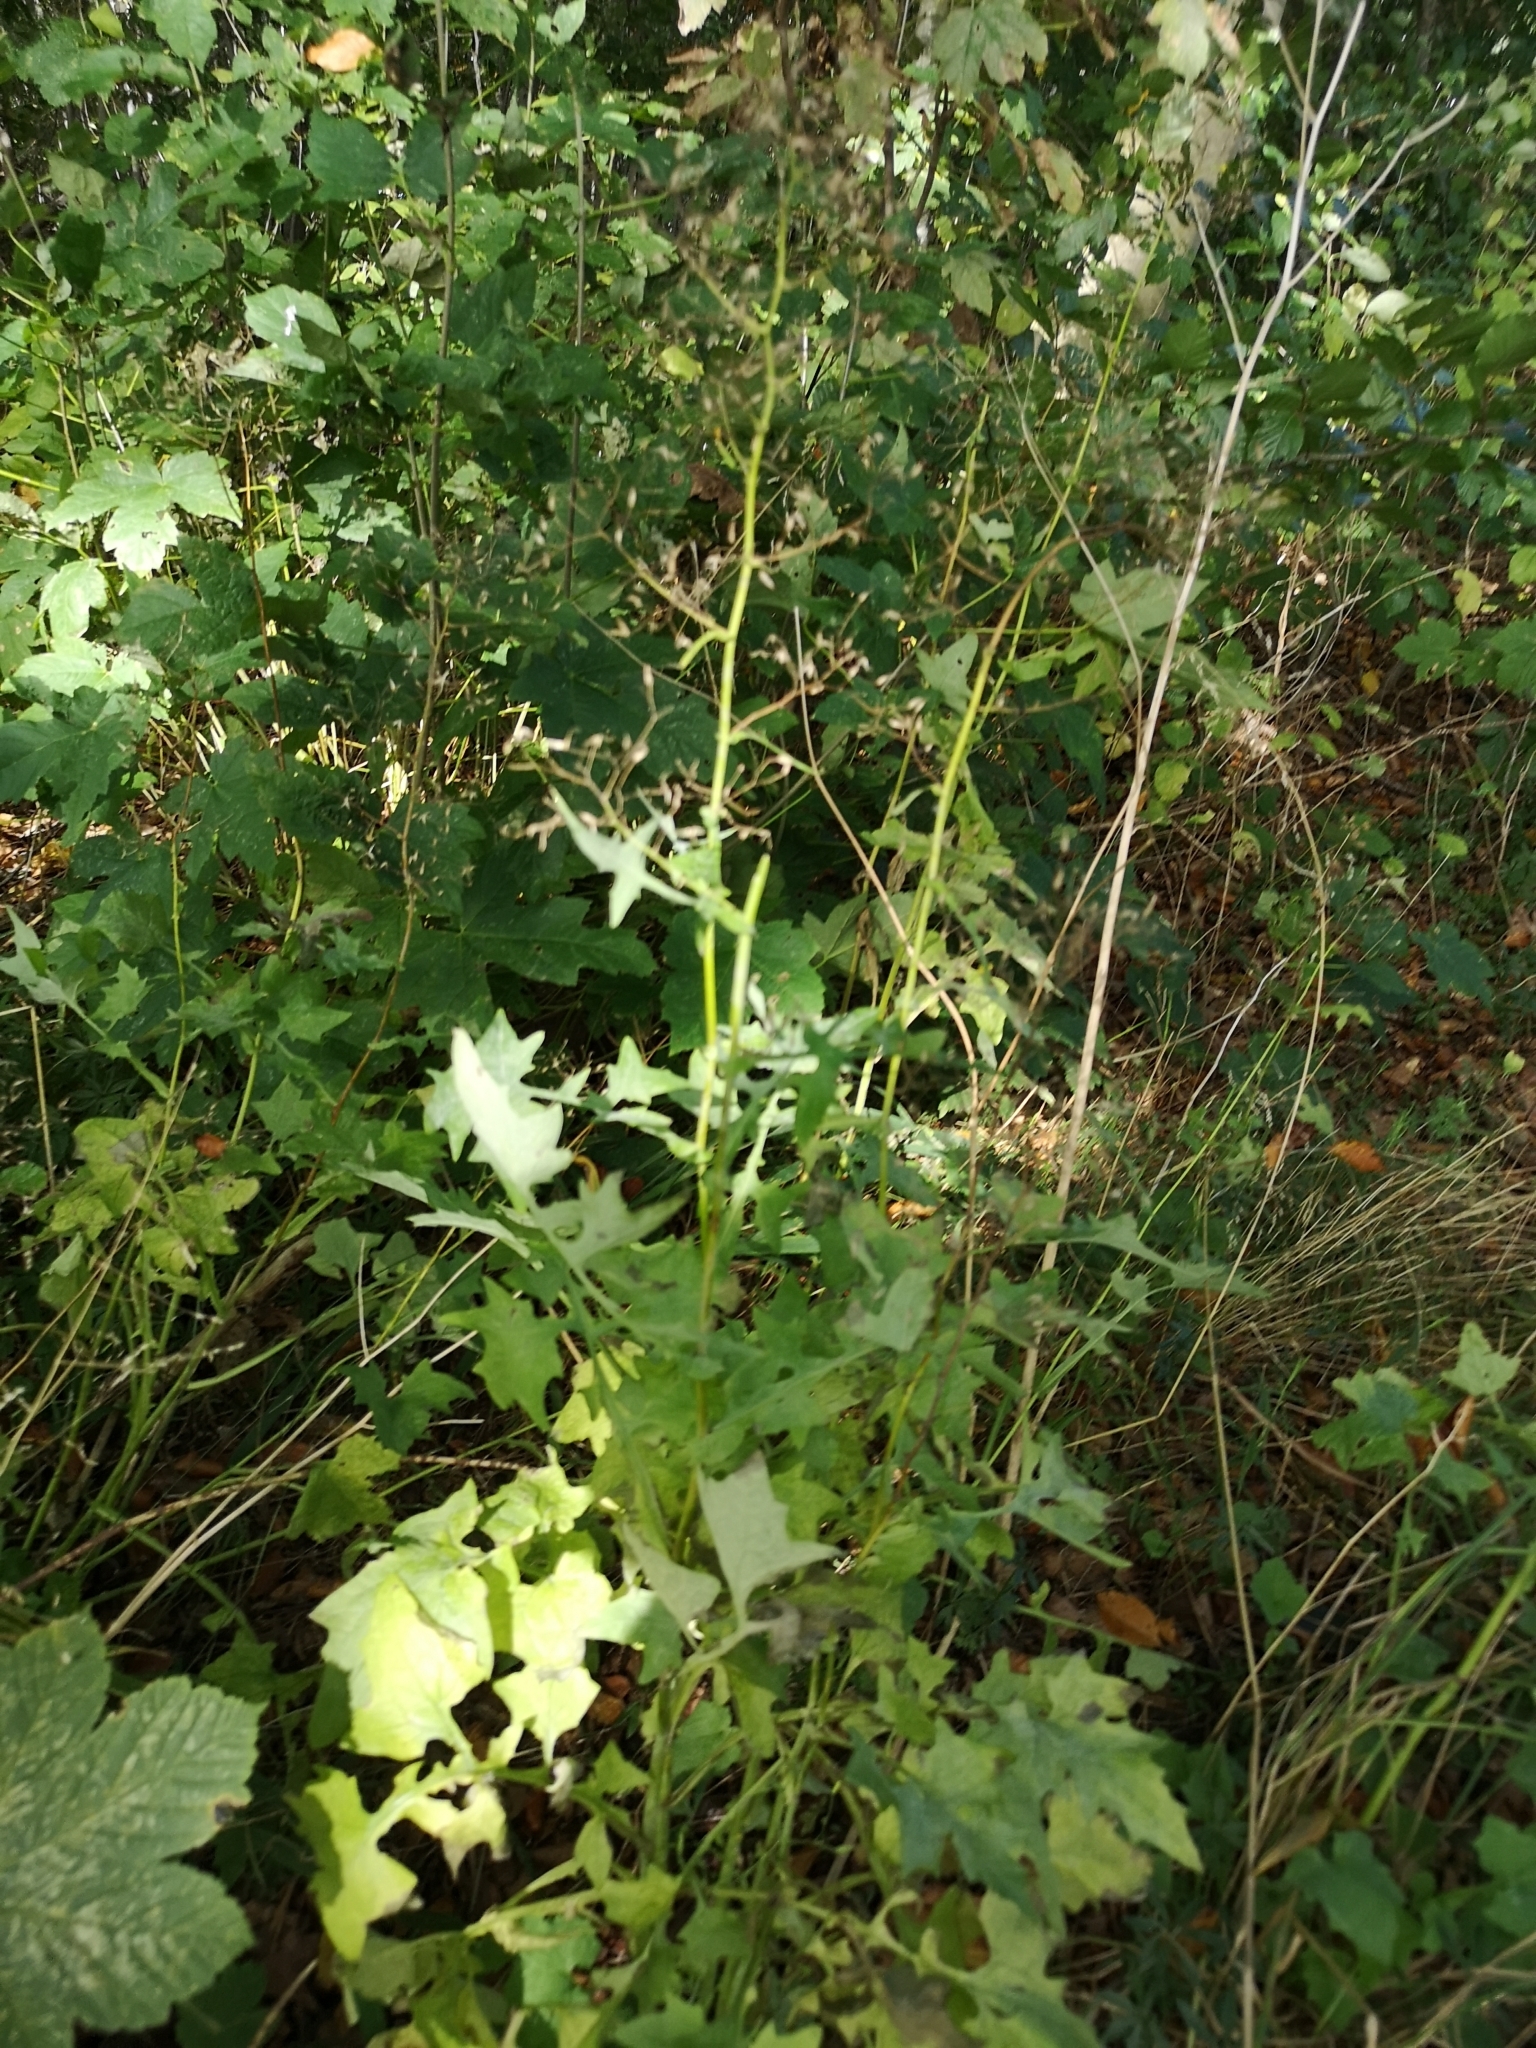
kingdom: Plantae
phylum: Tracheophyta
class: Magnoliopsida
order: Asterales
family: Asteraceae
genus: Mycelis
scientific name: Mycelis muralis
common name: Wall lettuce
